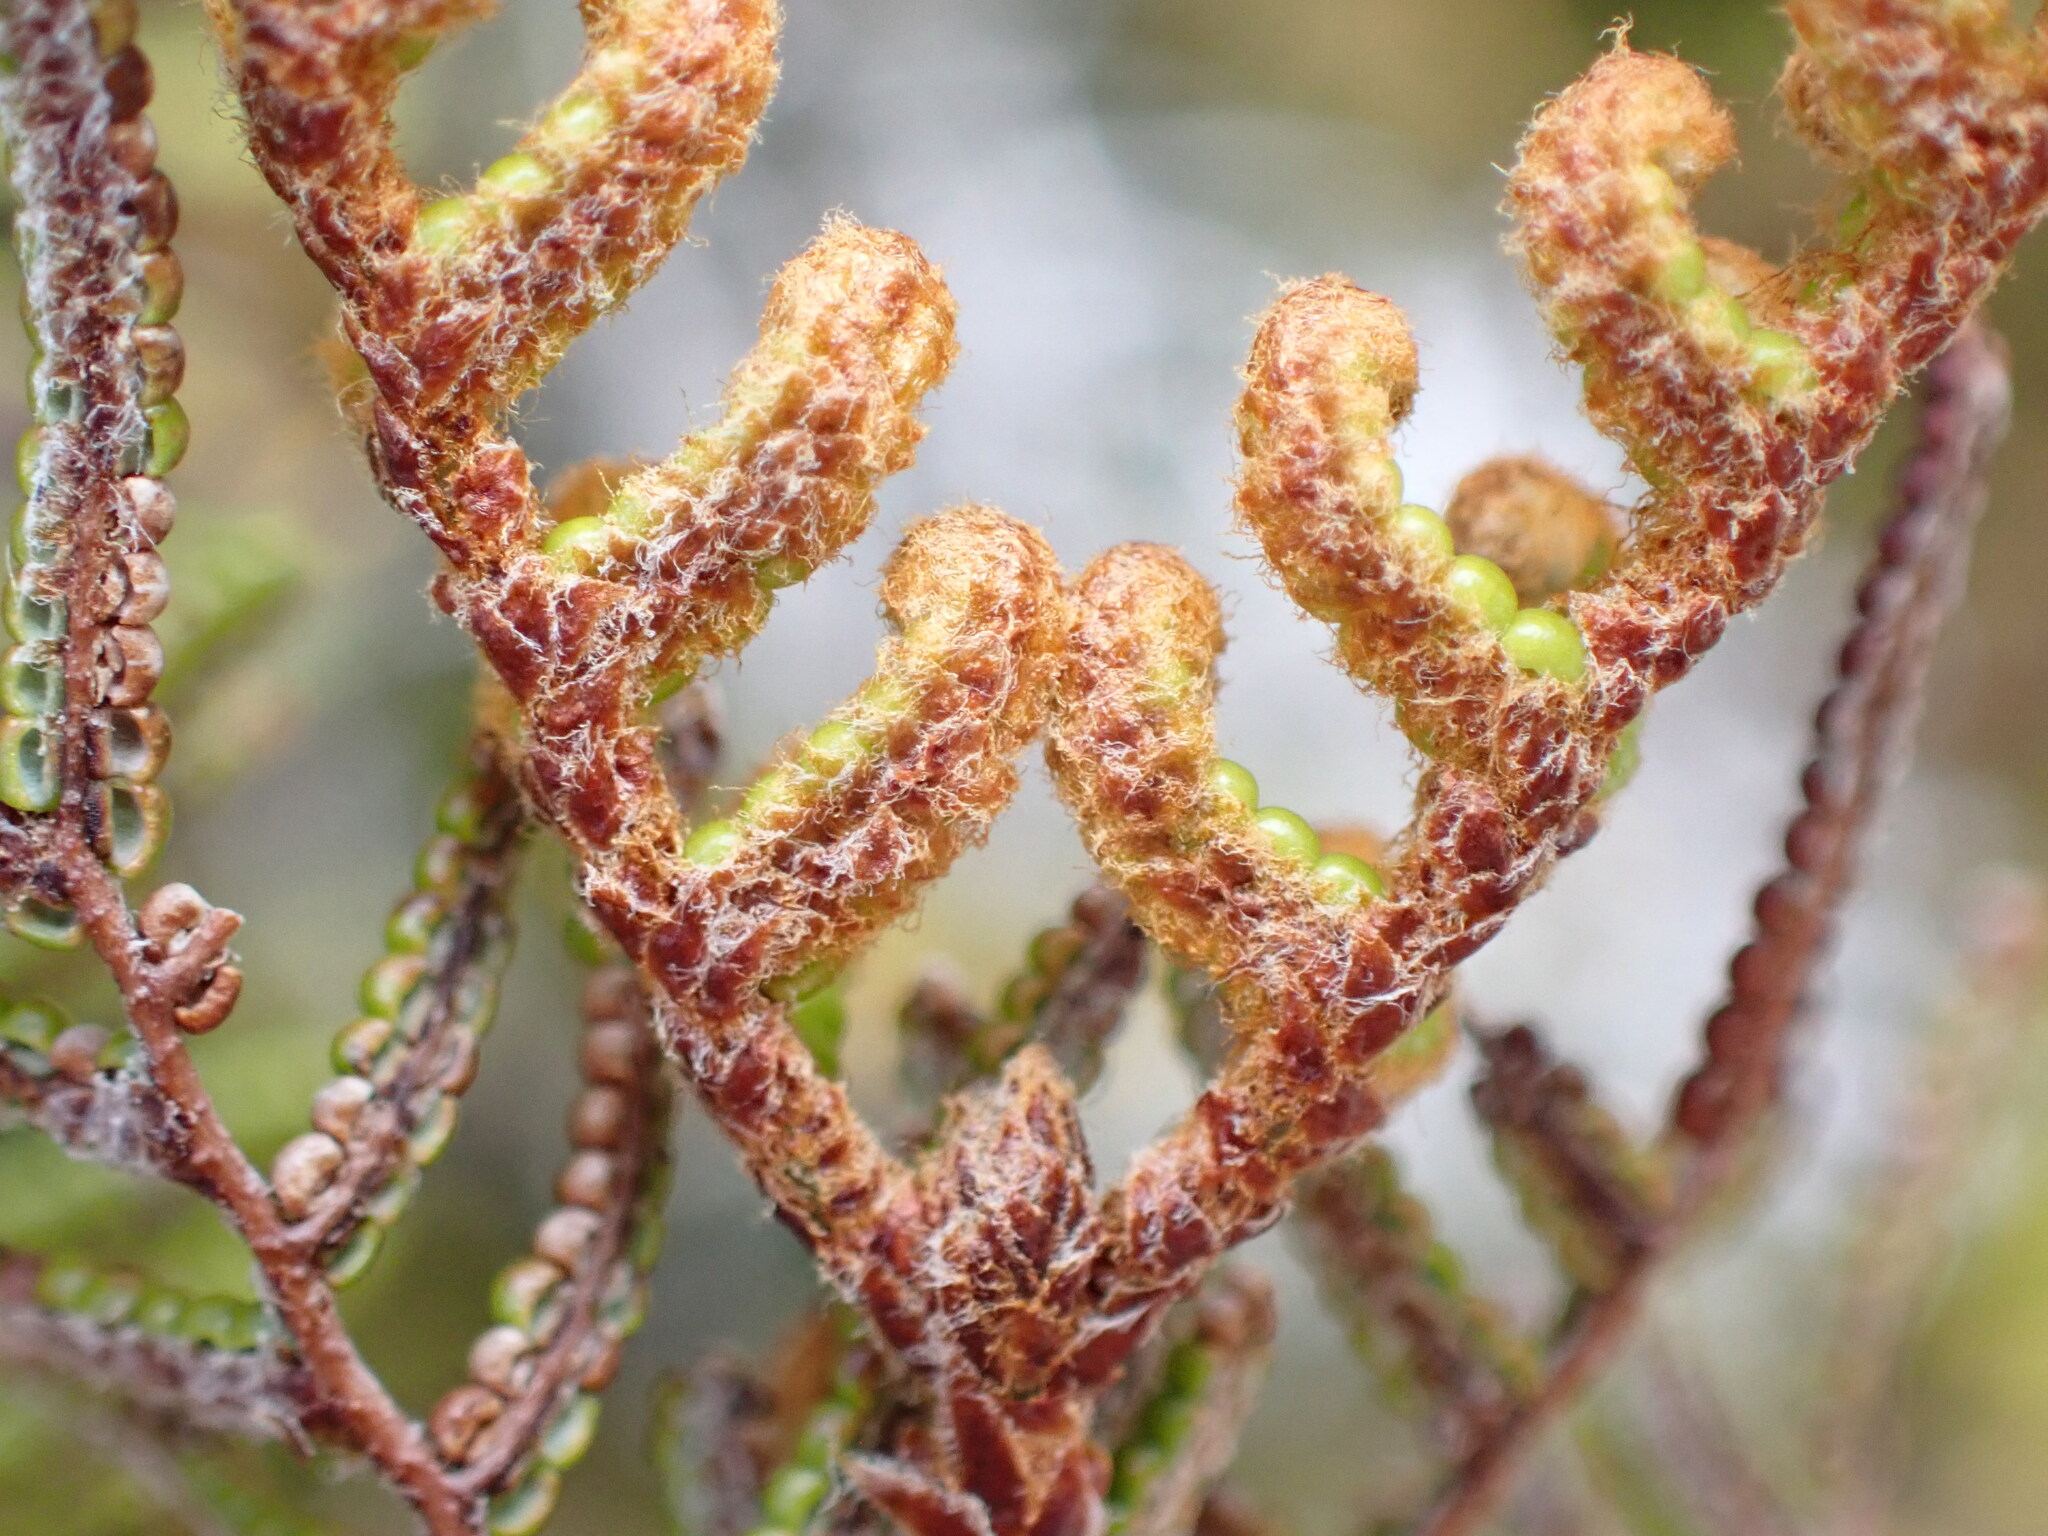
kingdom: Plantae
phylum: Tracheophyta
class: Polypodiopsida
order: Gleicheniales
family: Gleicheniaceae
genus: Gleichenia
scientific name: Gleichenia alpina
